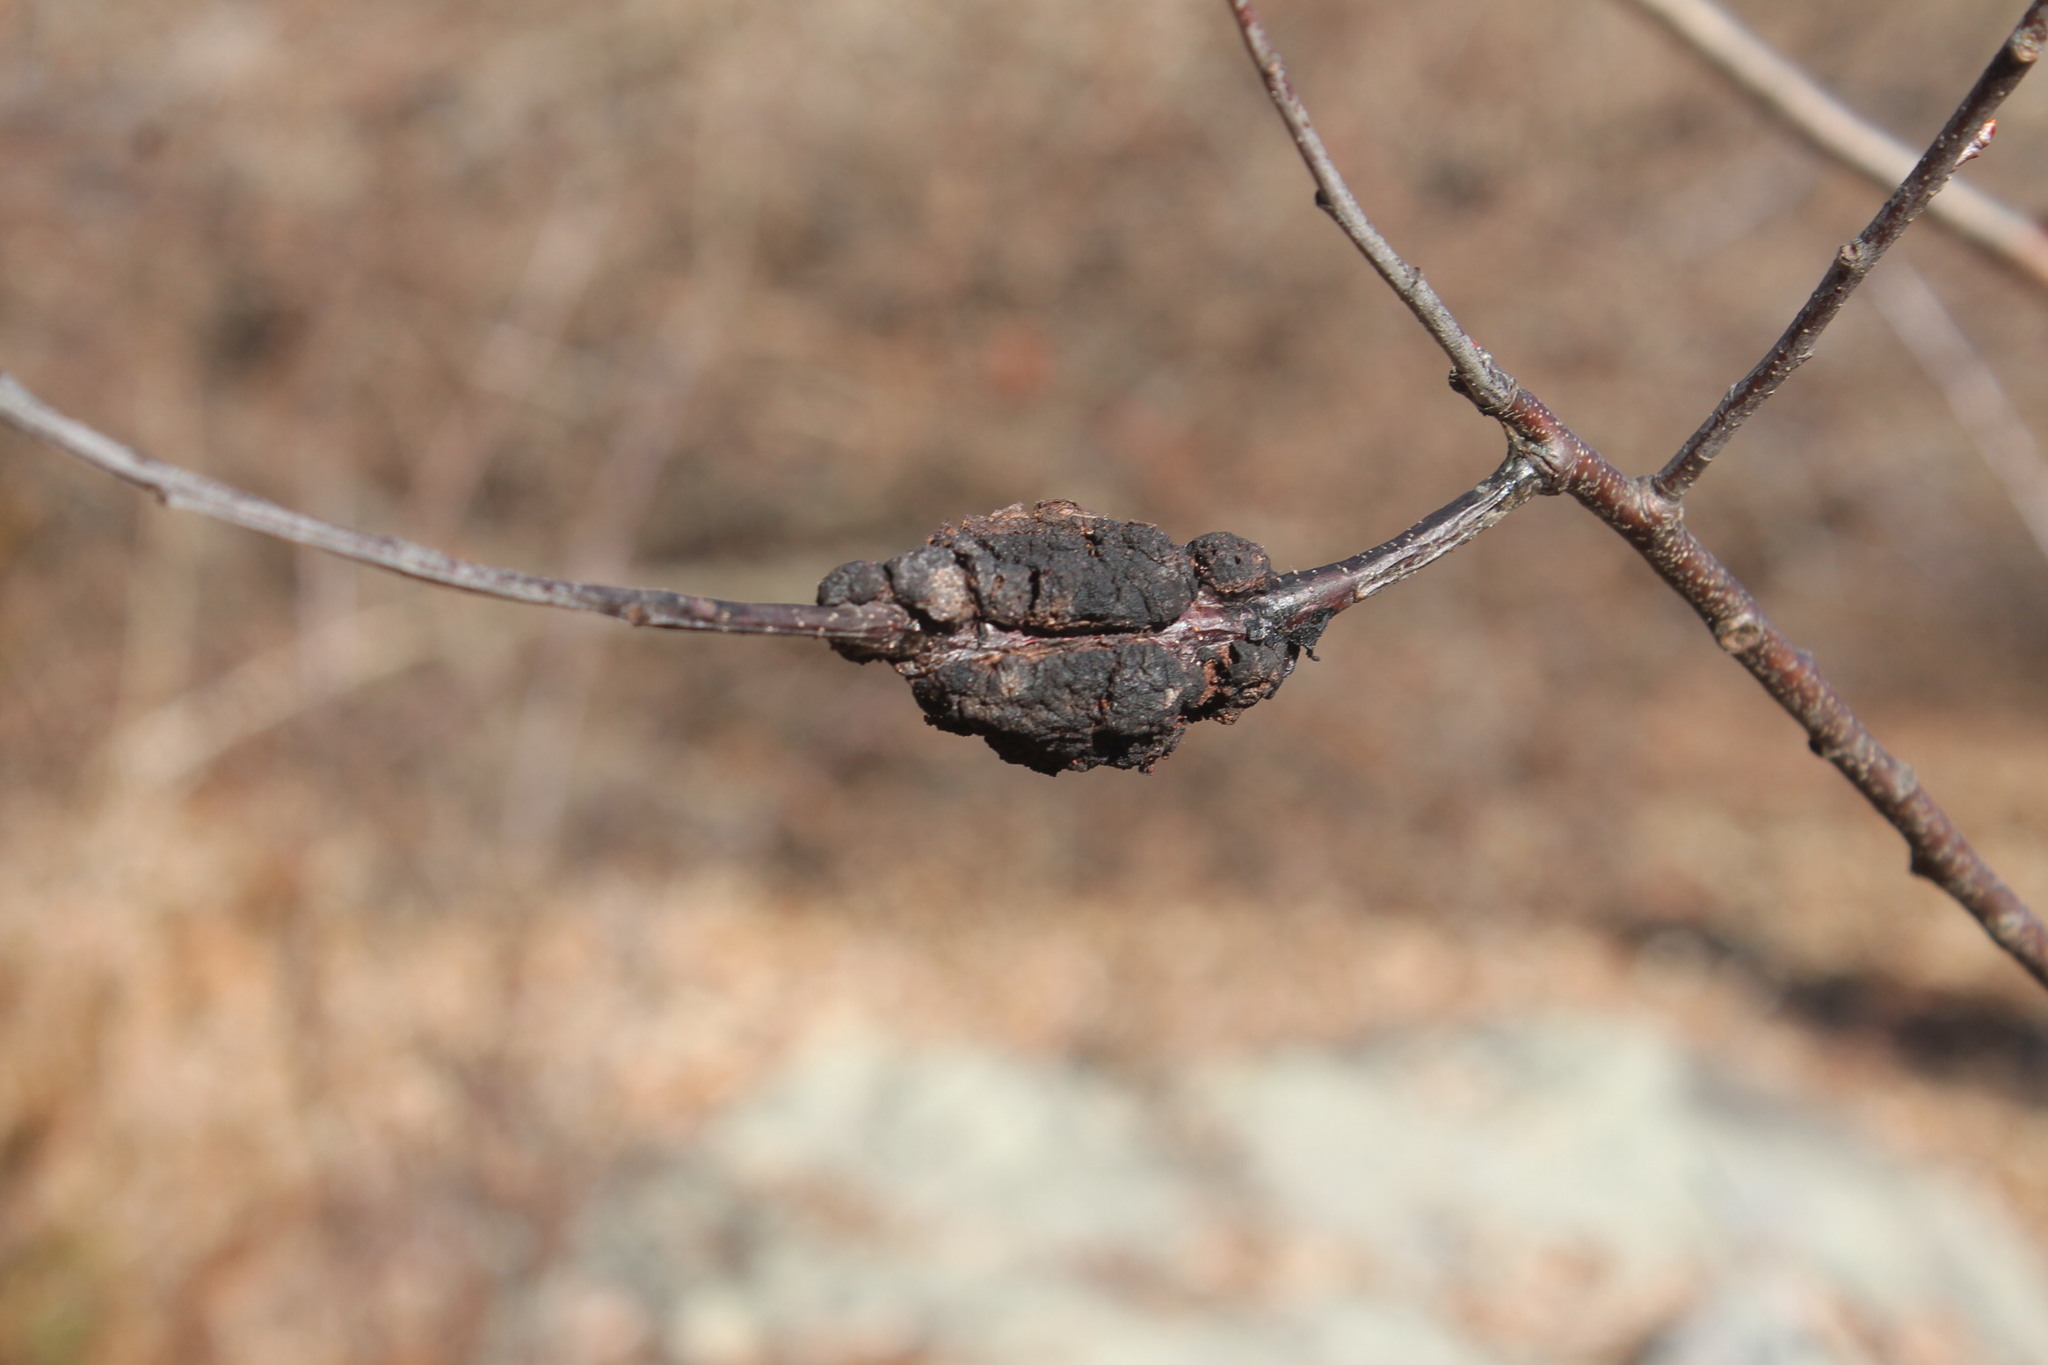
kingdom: Fungi
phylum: Ascomycota
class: Dothideomycetes
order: Venturiales
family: Venturiaceae
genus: Apiosporina
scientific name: Apiosporina morbosa
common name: Black knot
